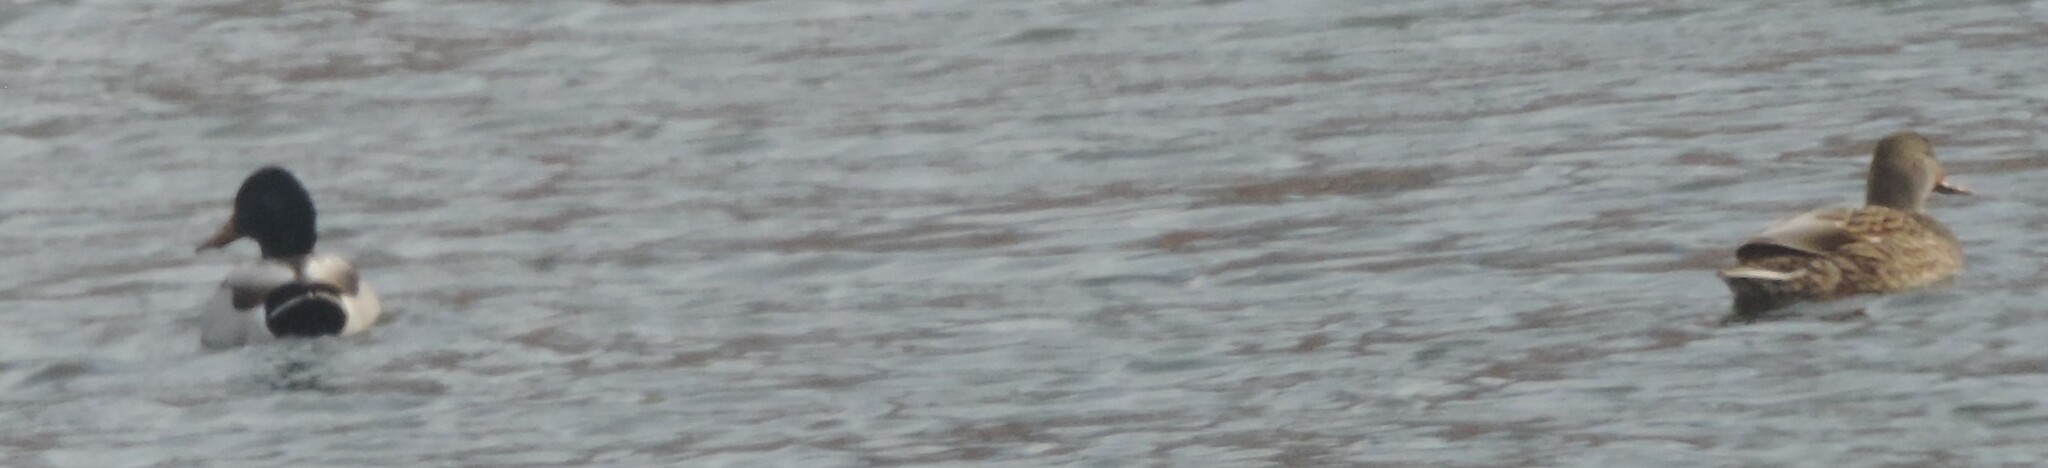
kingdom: Animalia
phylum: Chordata
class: Aves
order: Anseriformes
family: Anatidae
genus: Anas
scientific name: Anas platyrhynchos
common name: Mallard
